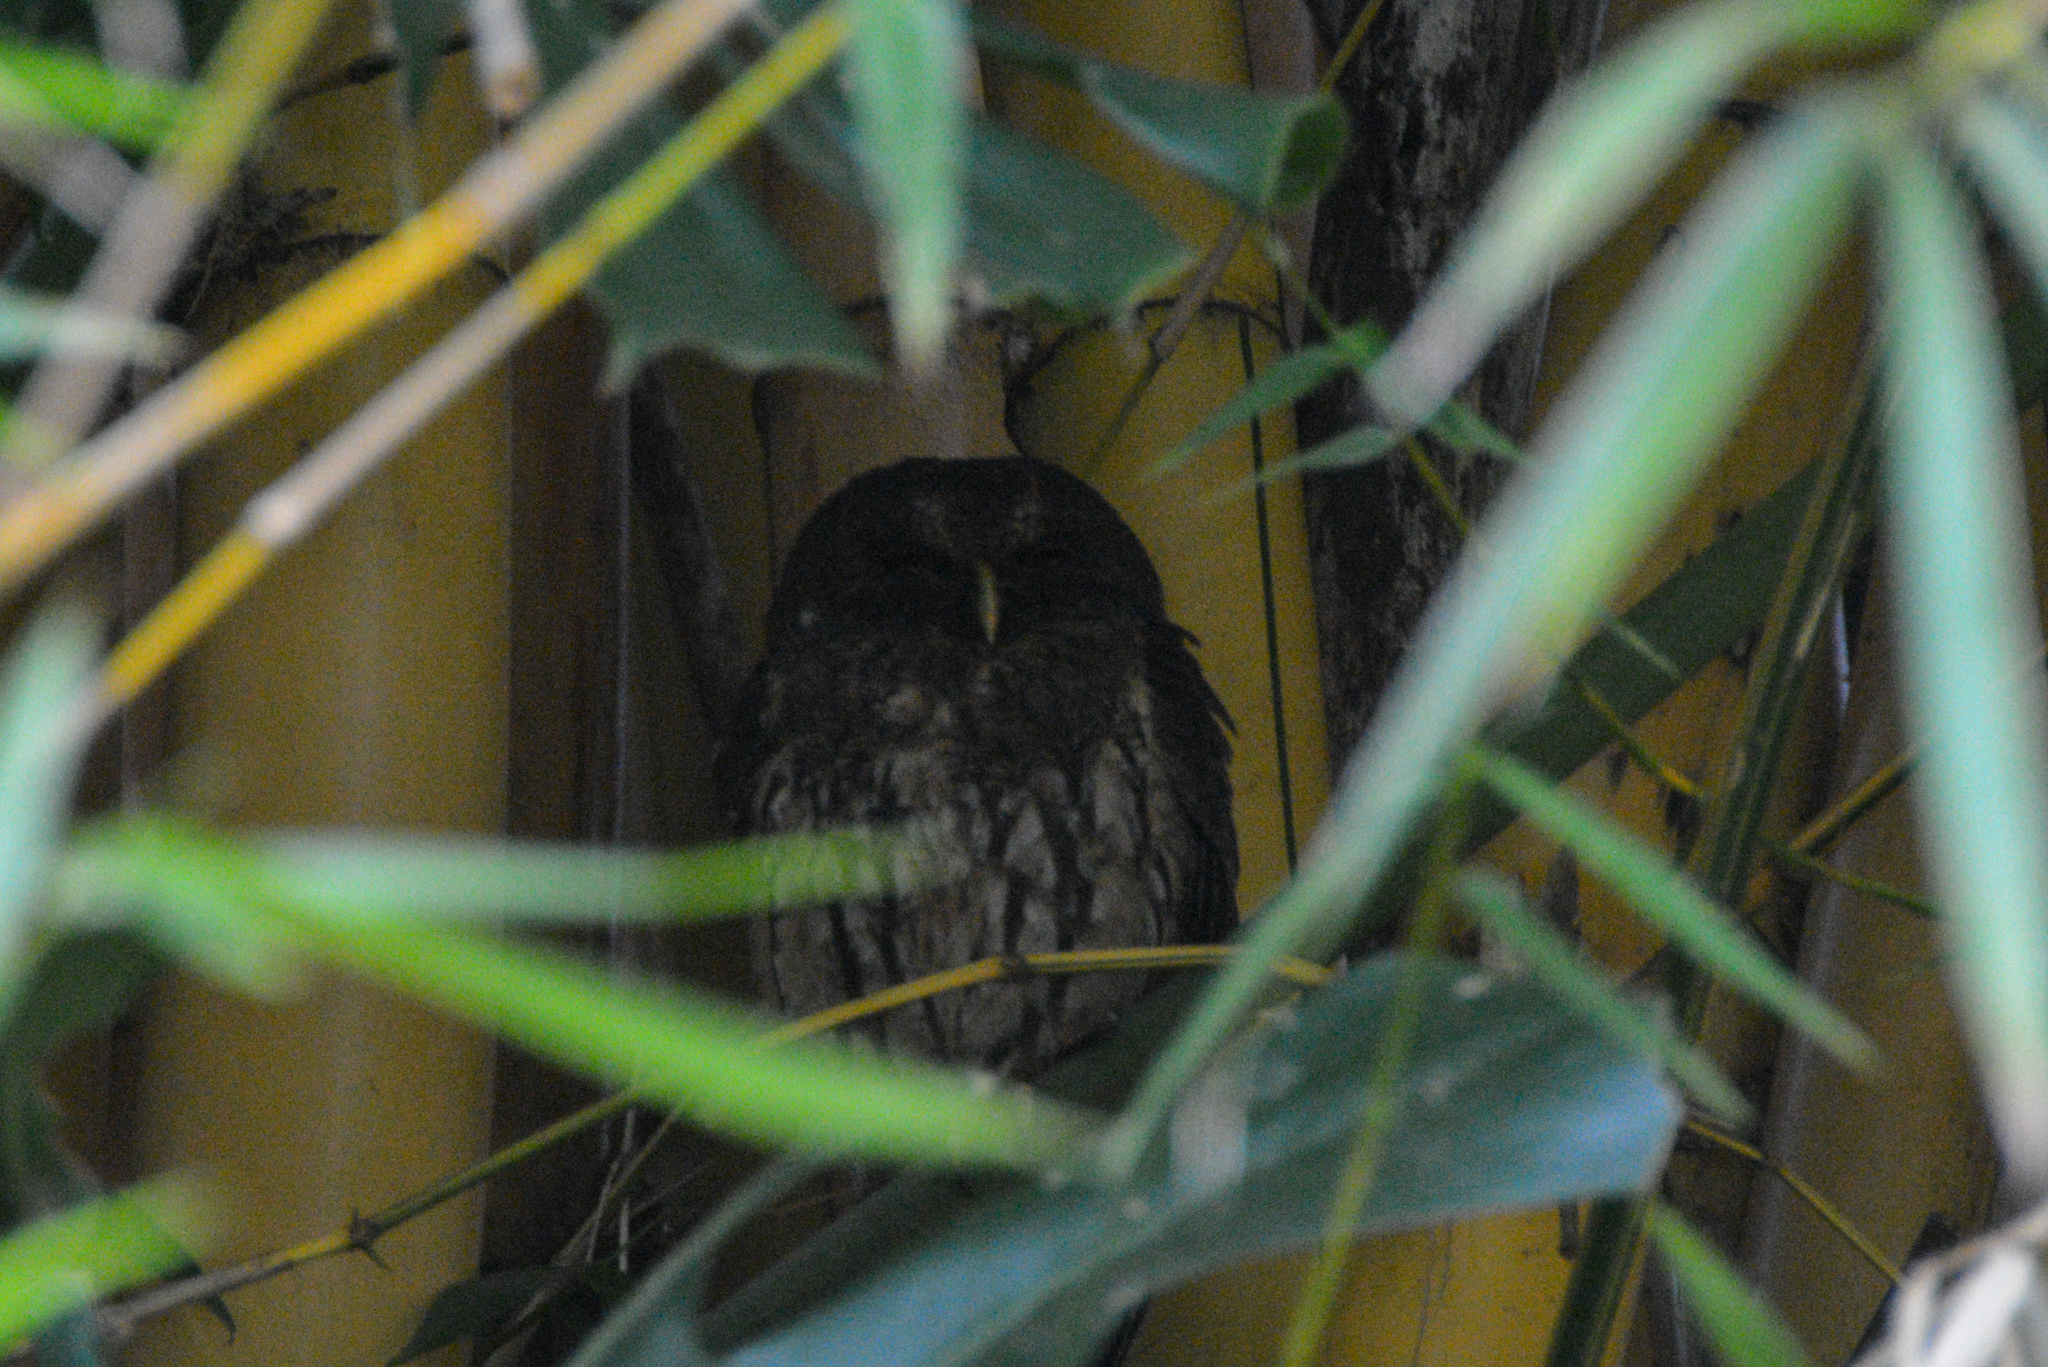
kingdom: Animalia
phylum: Chordata
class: Aves
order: Strigiformes
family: Strigidae
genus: Strix
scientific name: Strix virgata
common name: Mottled owl
